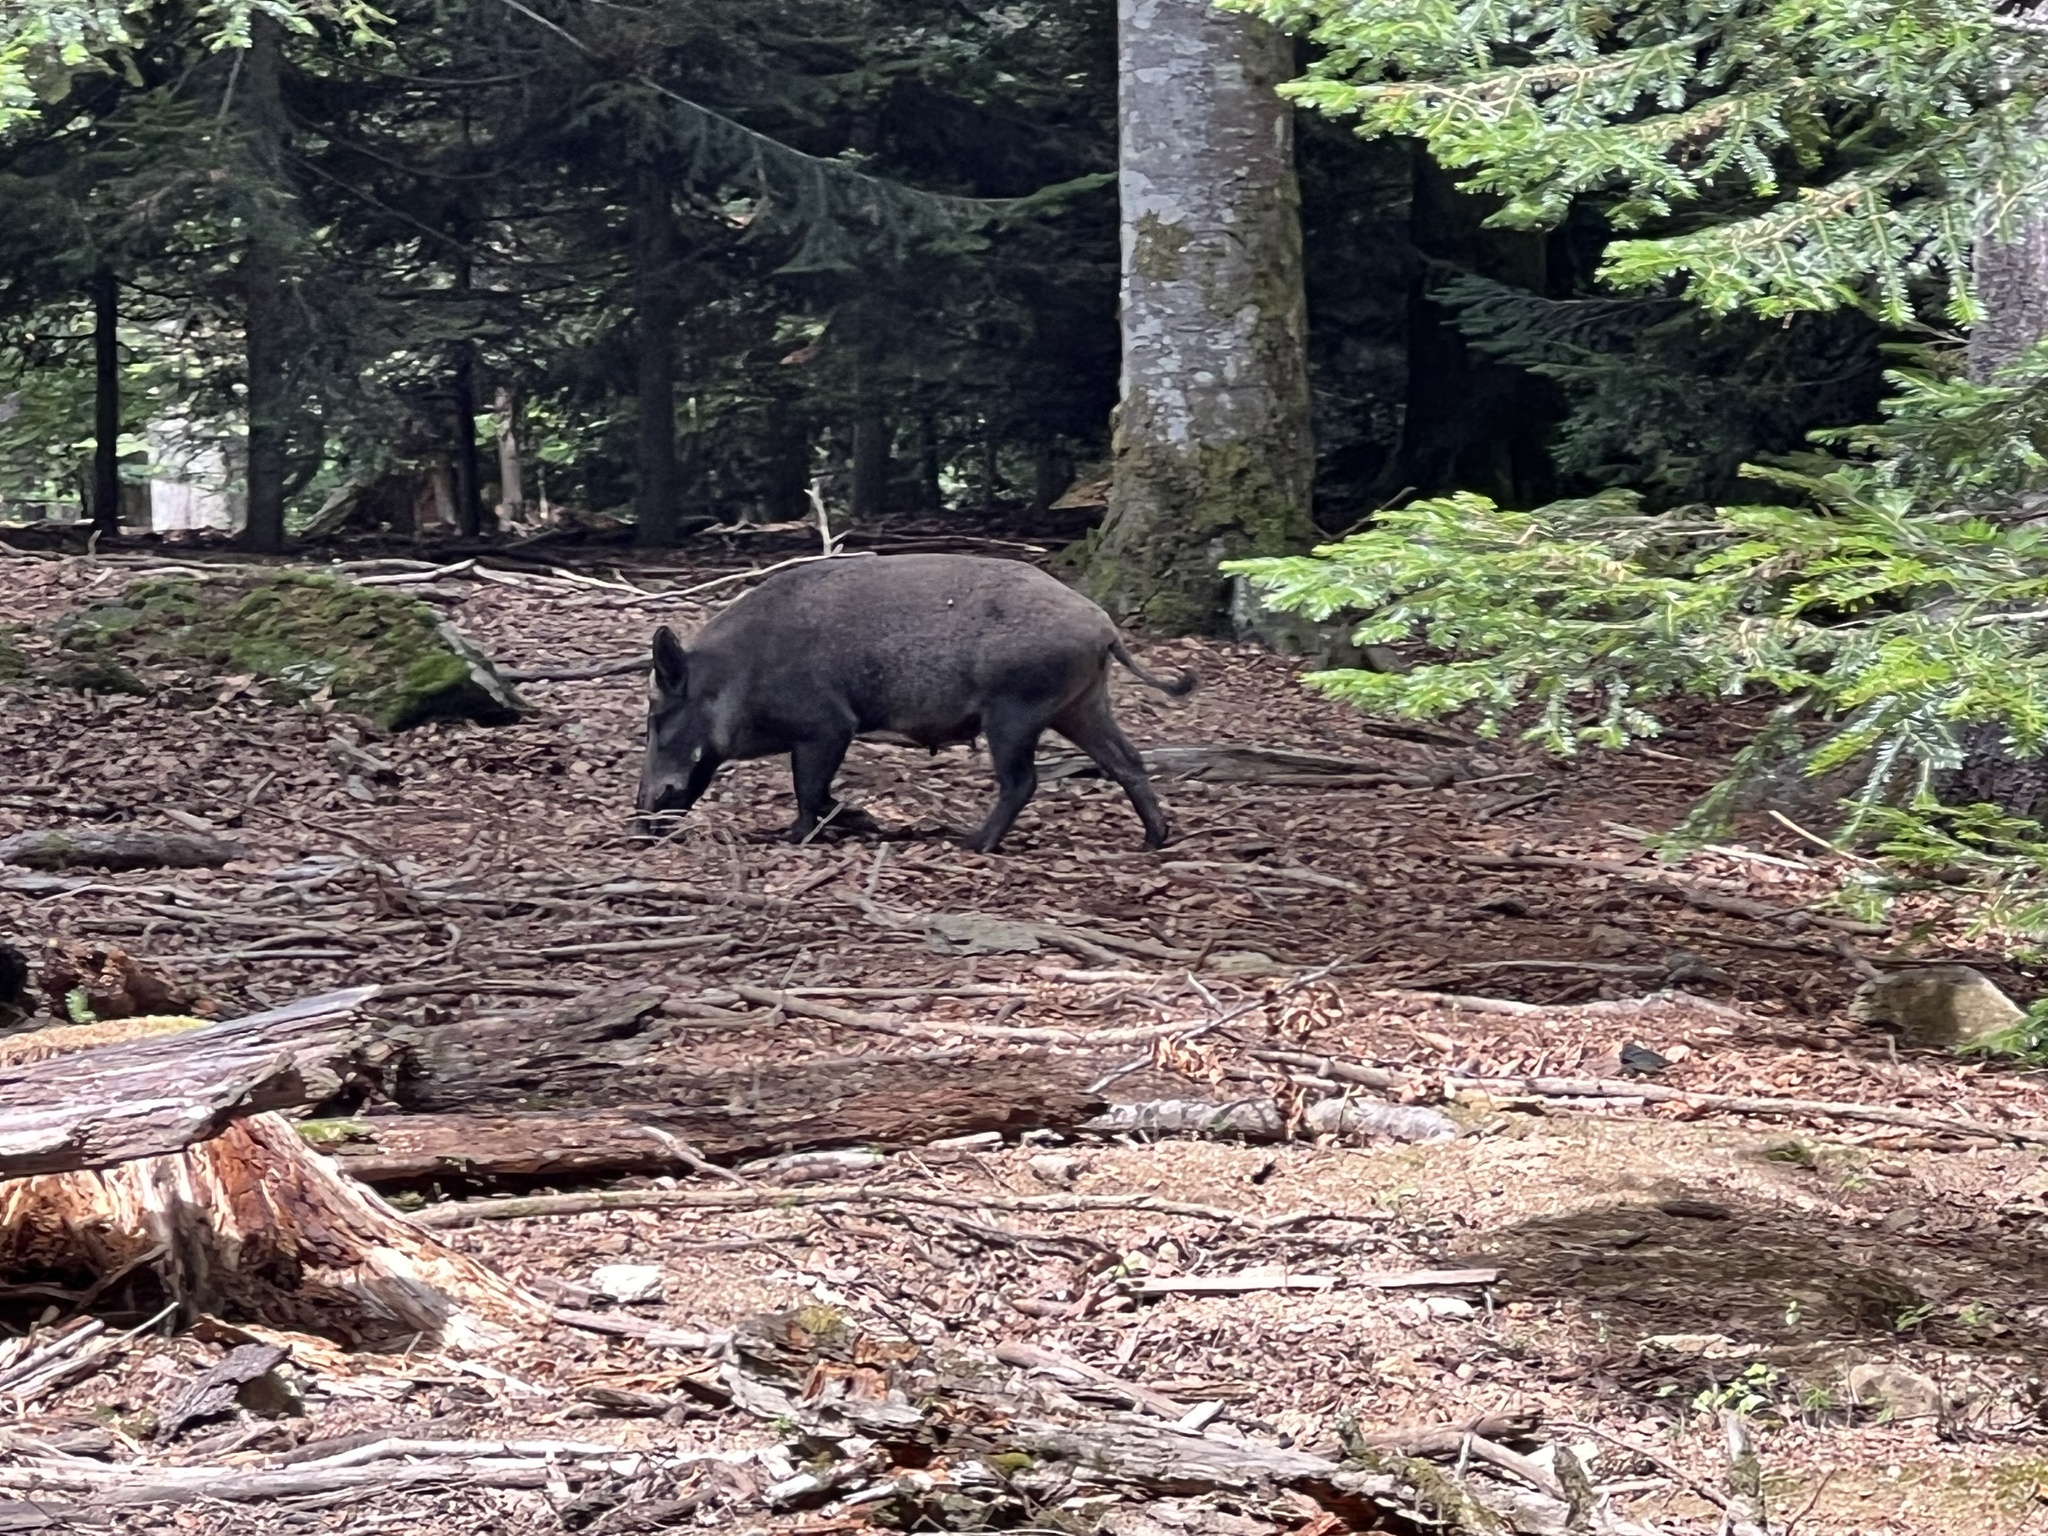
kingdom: Animalia
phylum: Chordata
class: Mammalia
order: Artiodactyla
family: Suidae
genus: Sus
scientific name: Sus scrofa
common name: Wild boar
